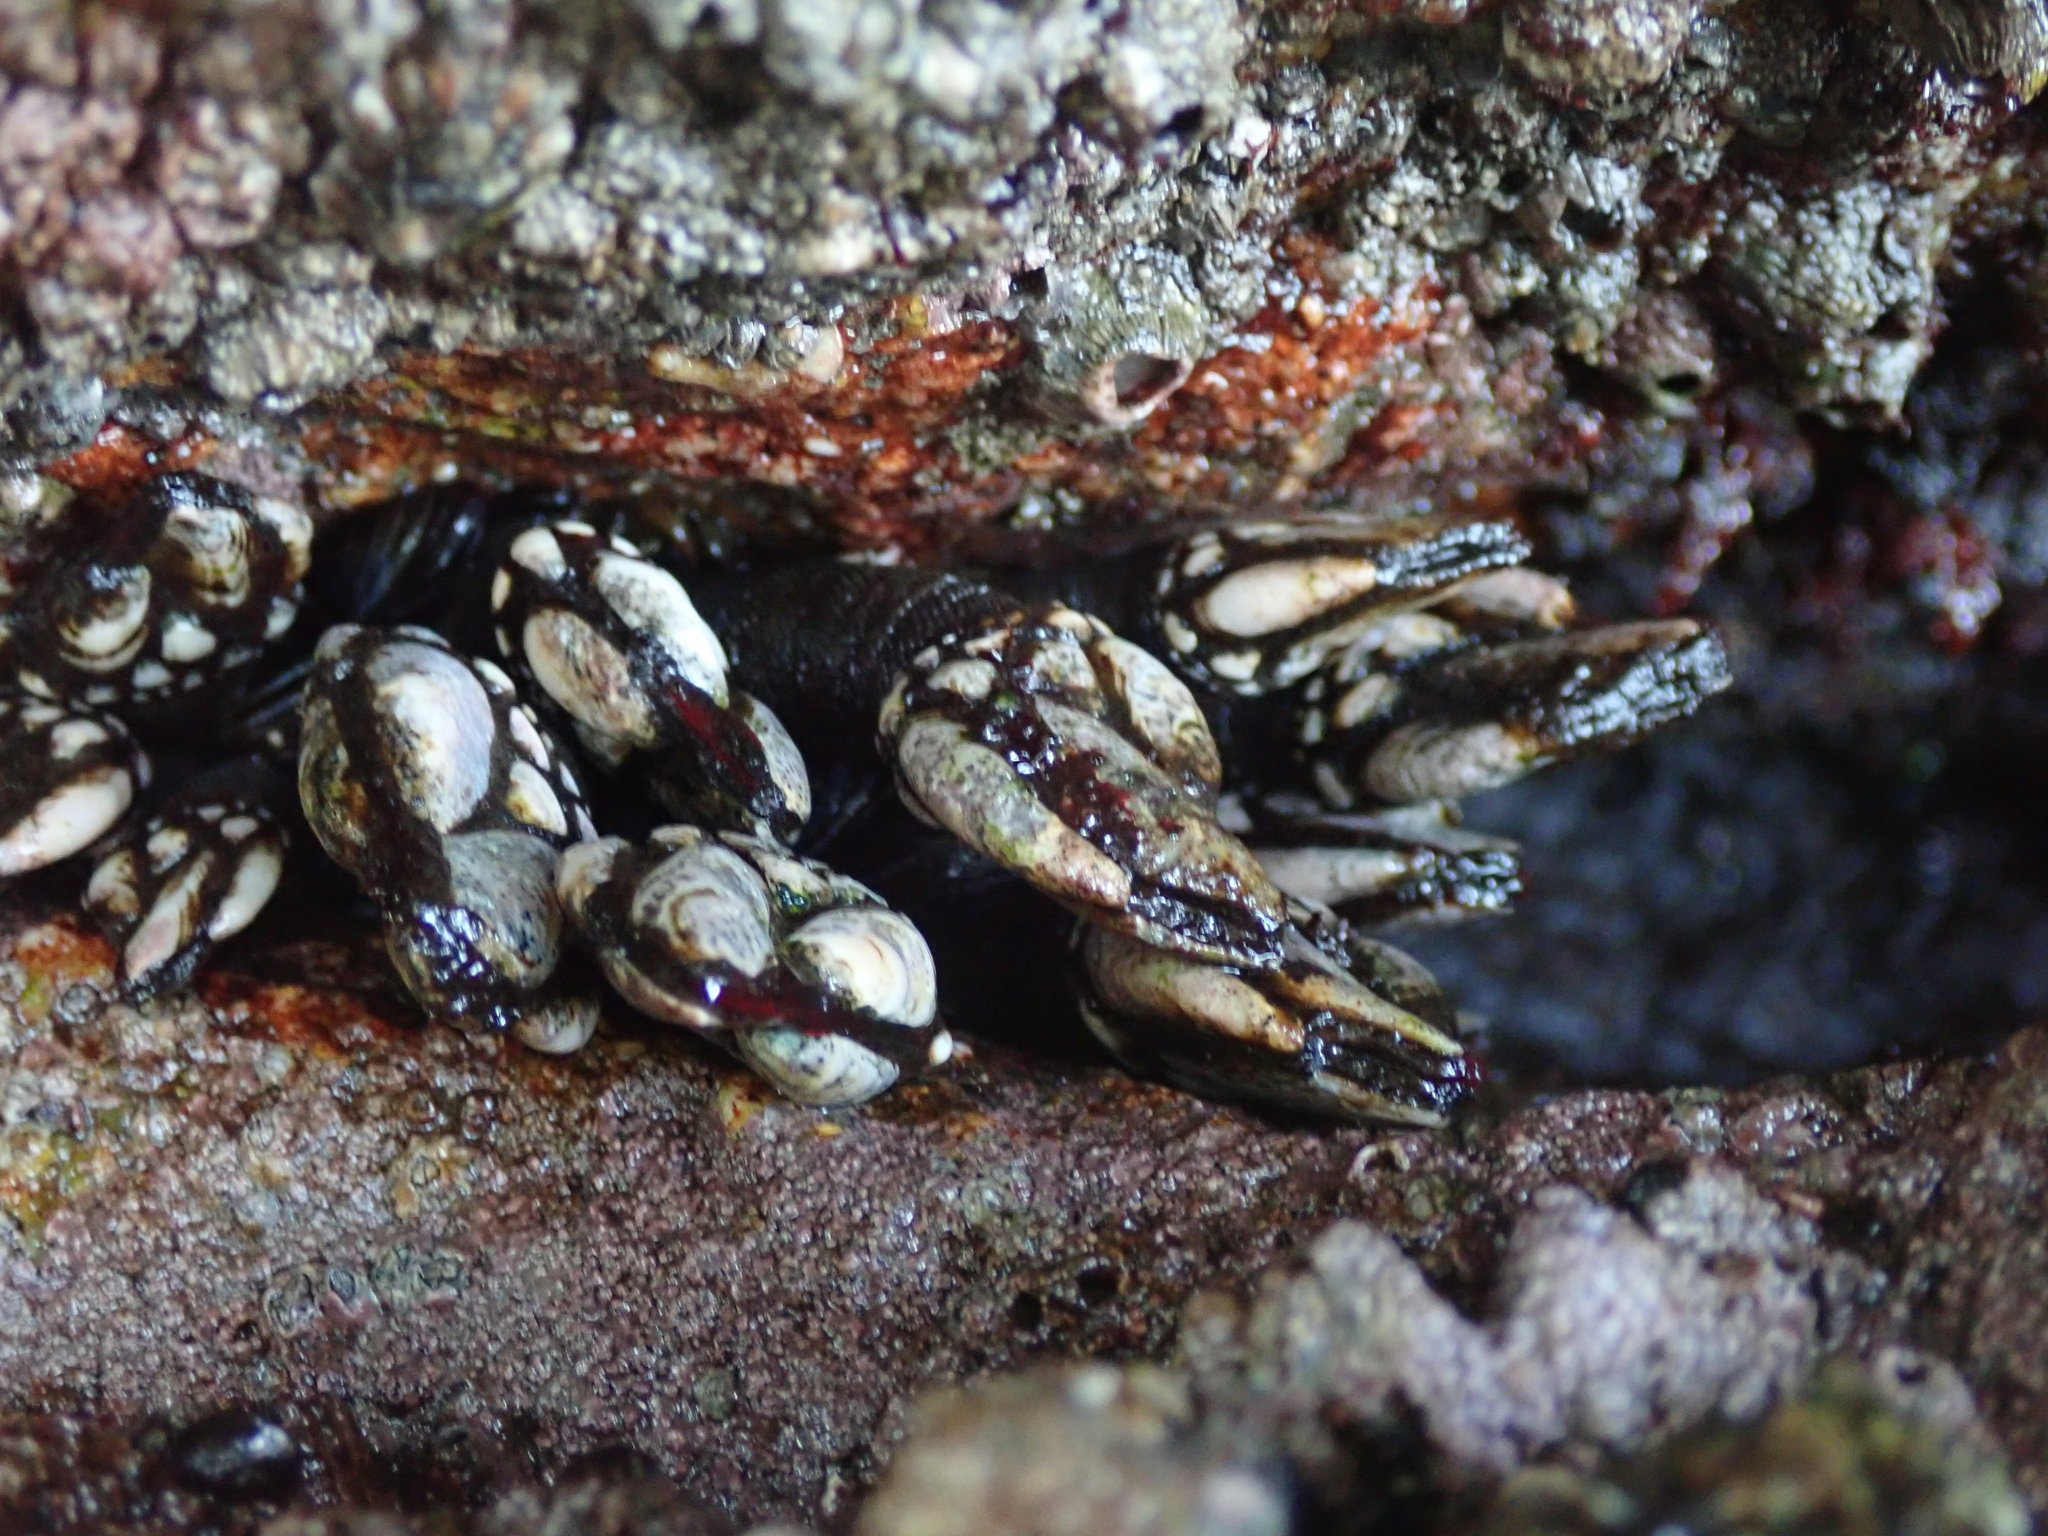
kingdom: Animalia
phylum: Arthropoda
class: Maxillopoda
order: Pedunculata
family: Pollicipedidae
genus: Pollicipes
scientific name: Pollicipes pollicipes
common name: Gooseneck barnacle
